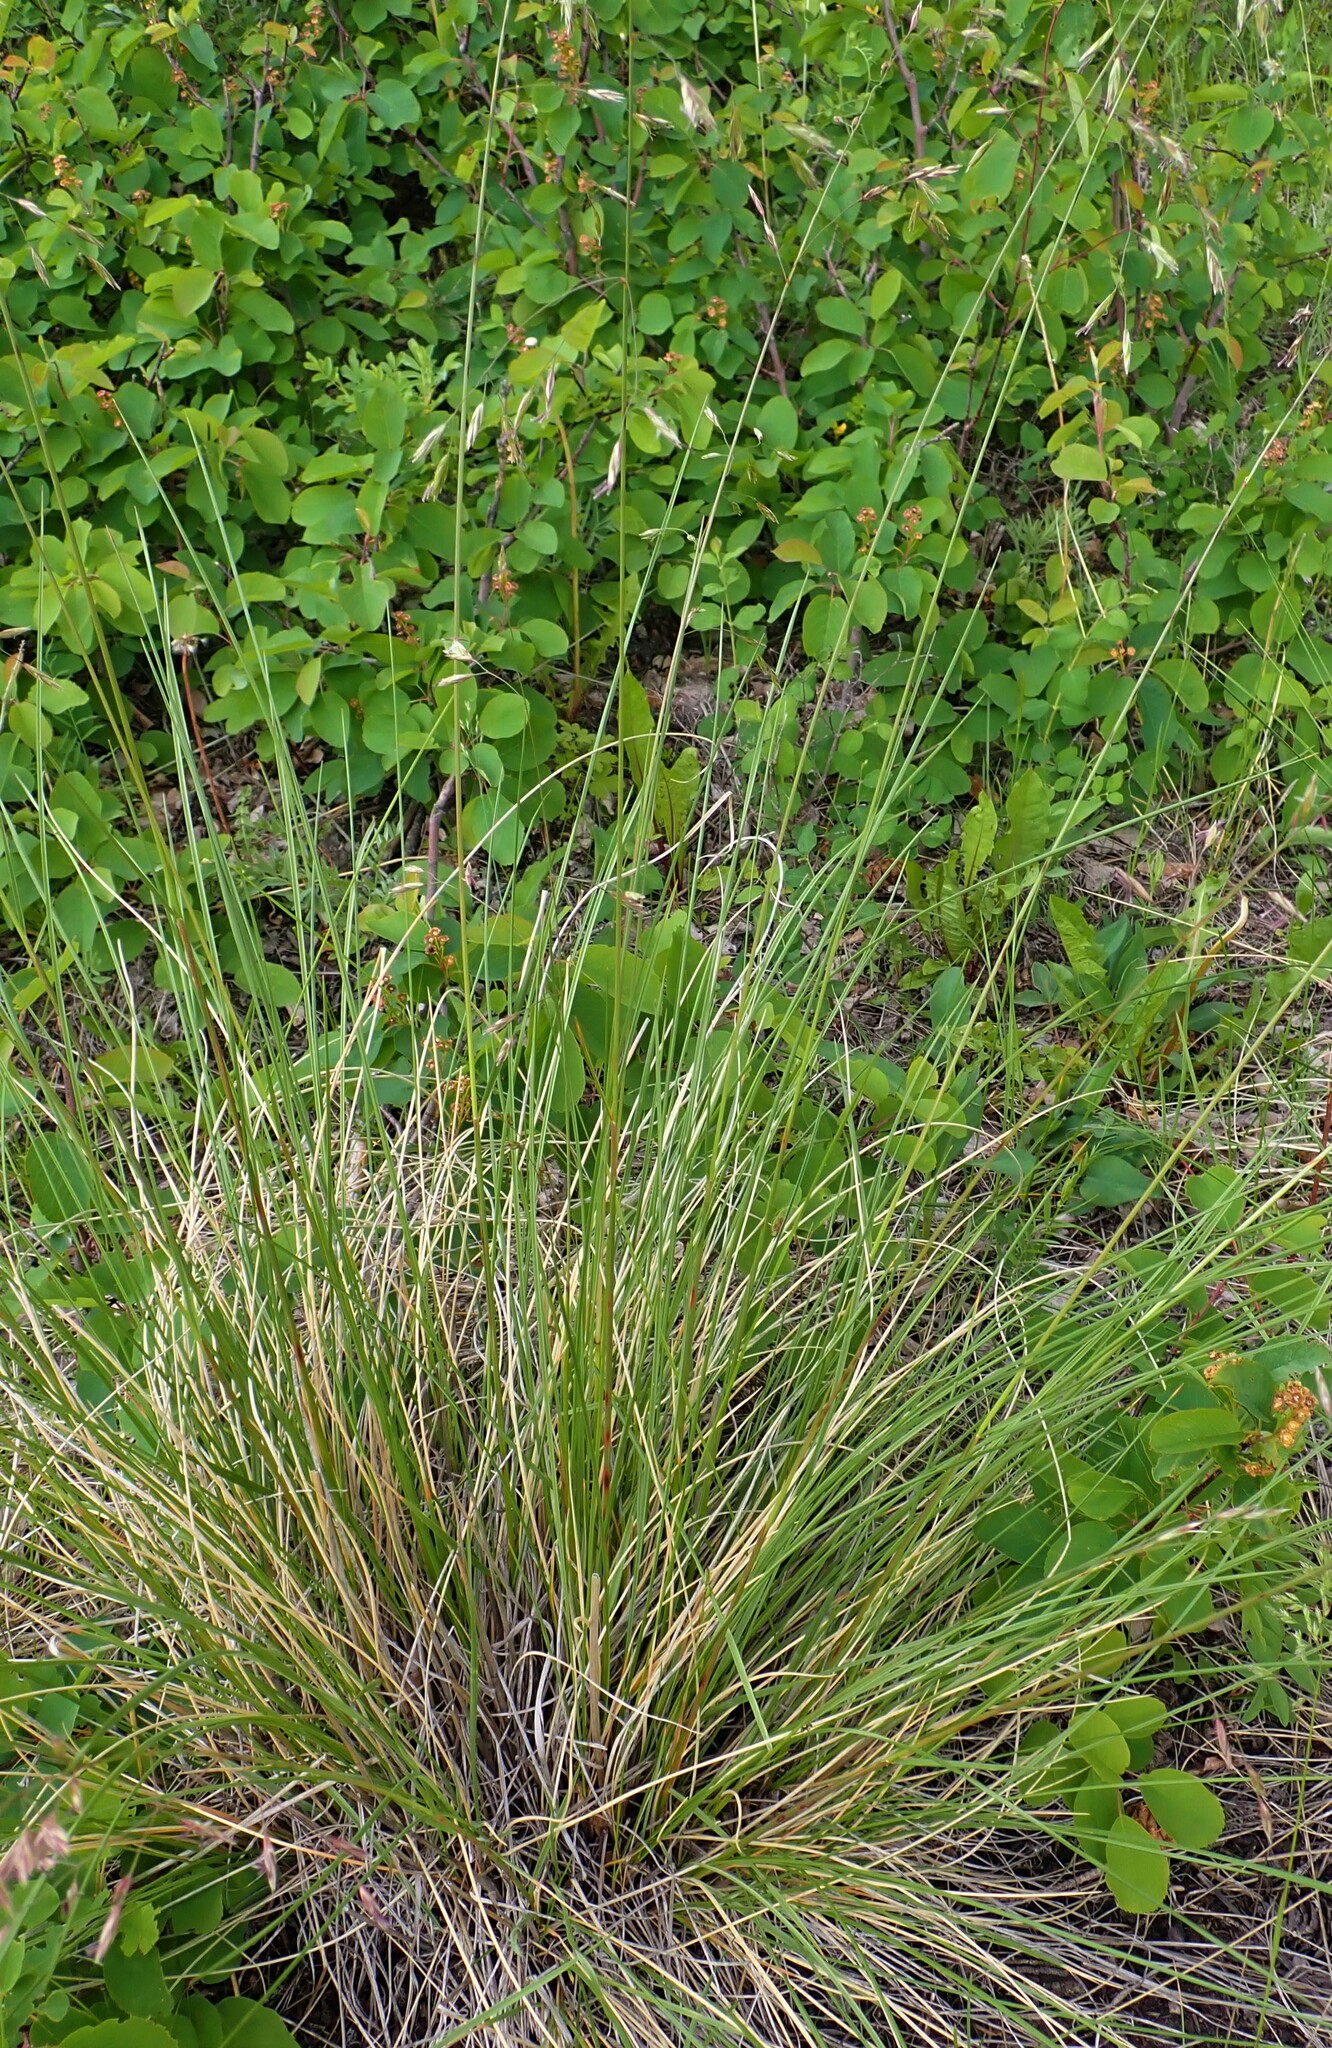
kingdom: Plantae
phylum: Tracheophyta
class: Liliopsida
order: Poales
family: Poaceae
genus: Festuca
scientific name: Festuca campestris
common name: Mountain rough fescue
